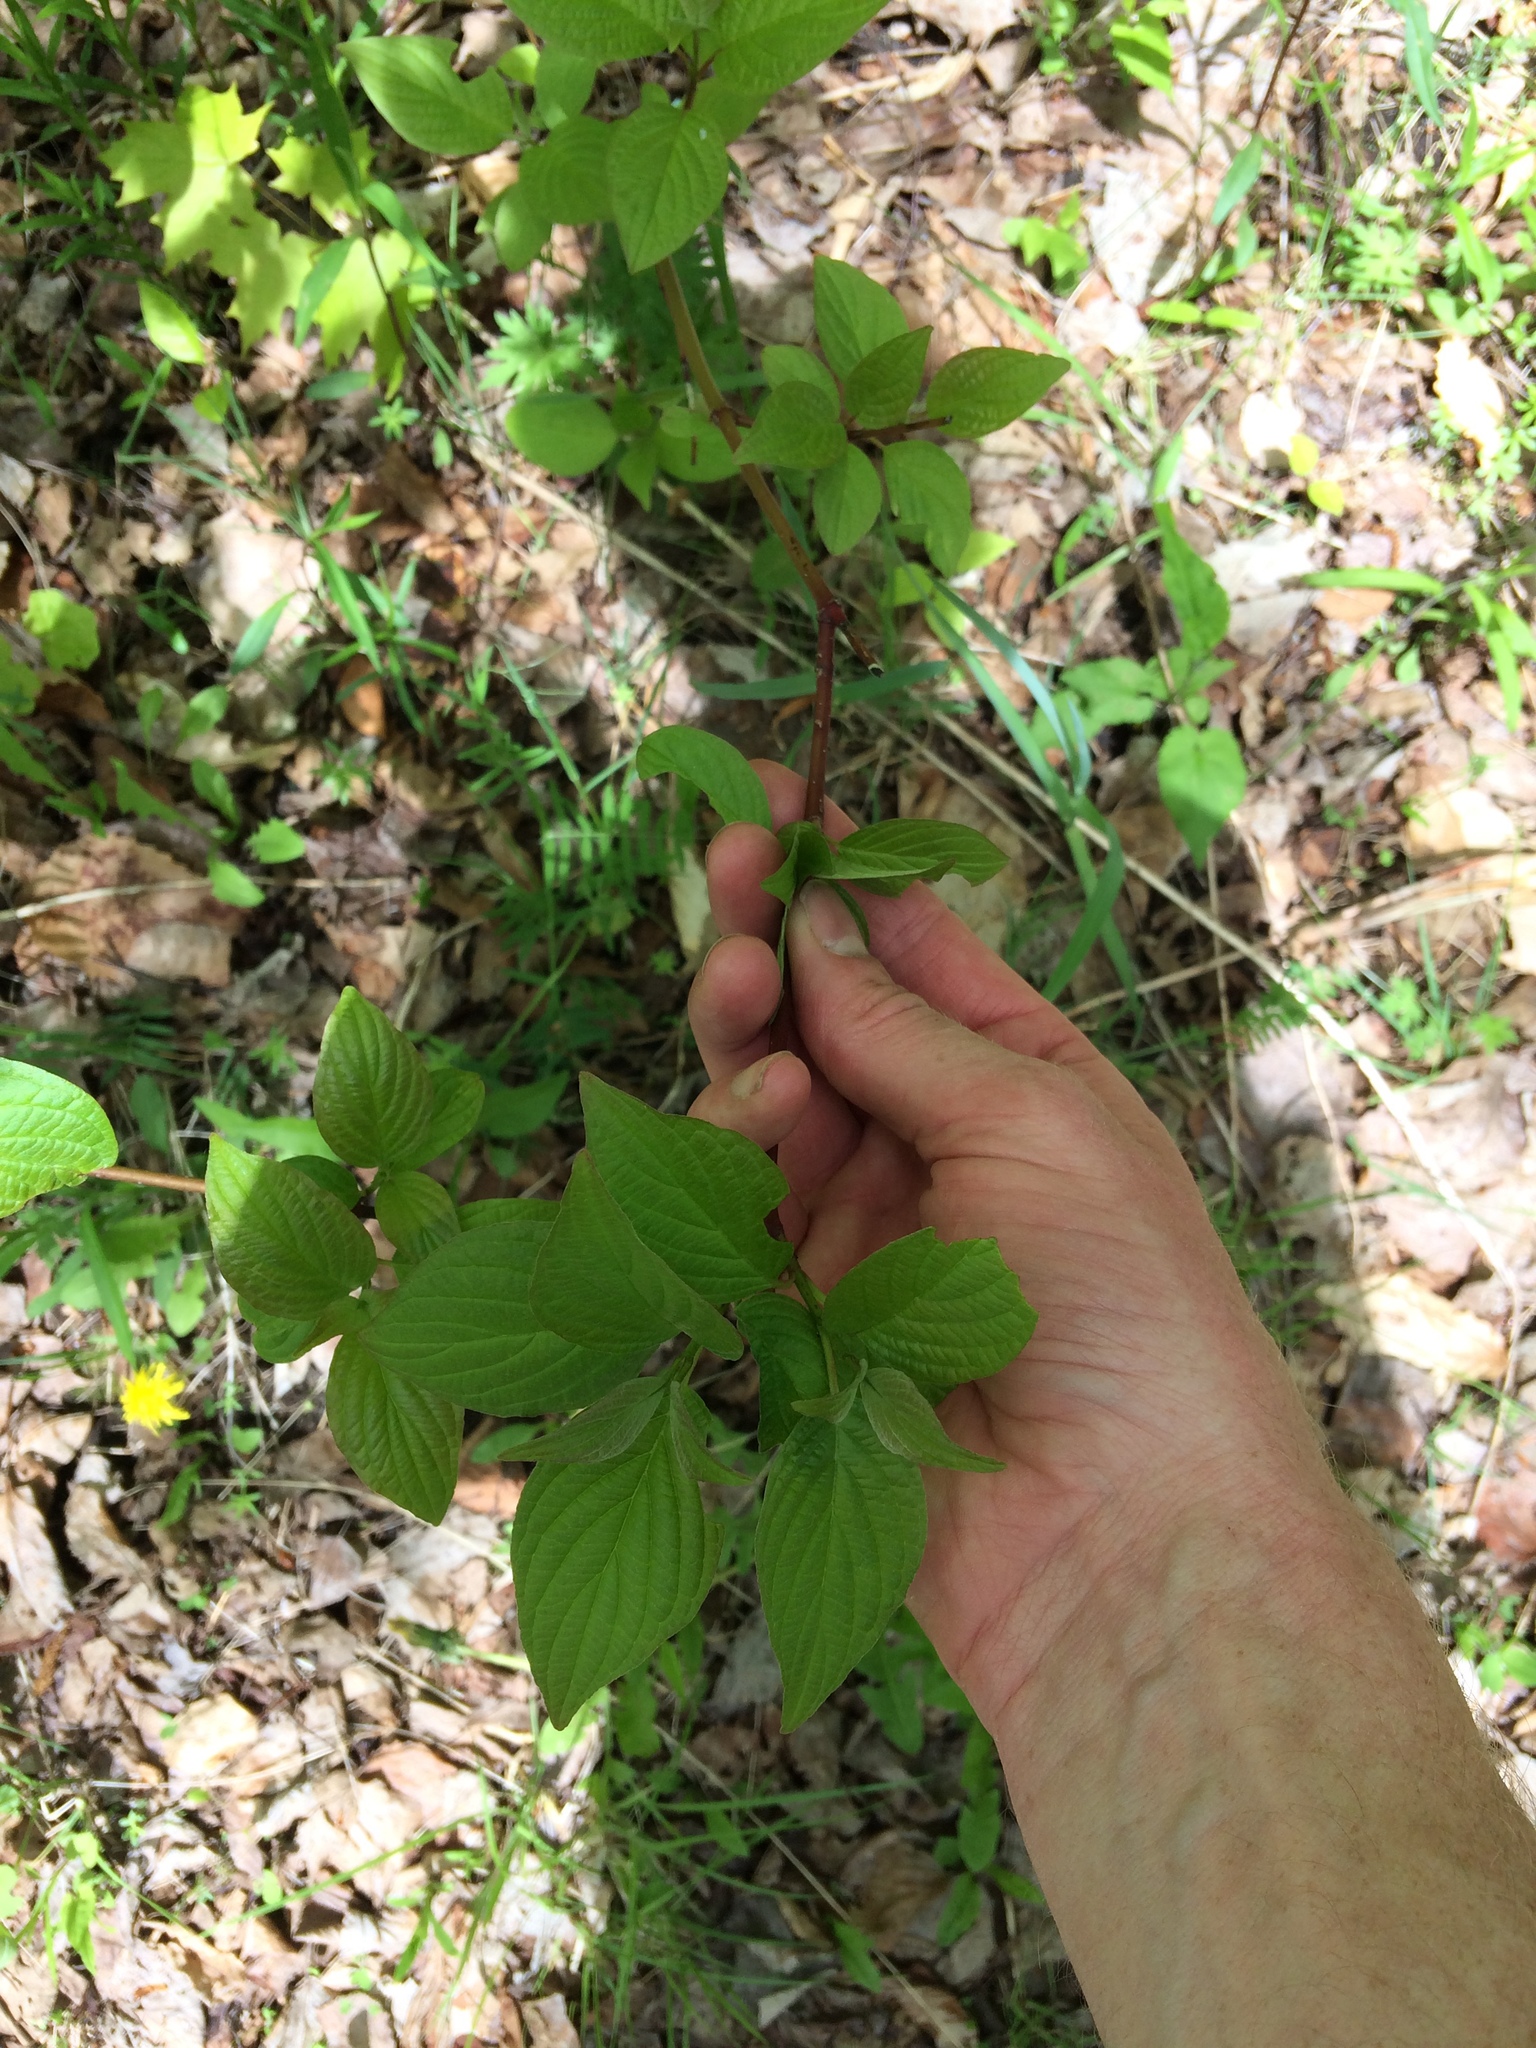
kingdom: Plantae
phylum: Tracheophyta
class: Magnoliopsida
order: Cornales
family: Cornaceae
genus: Cornus
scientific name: Cornus sericea
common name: Red-osier dogwood
